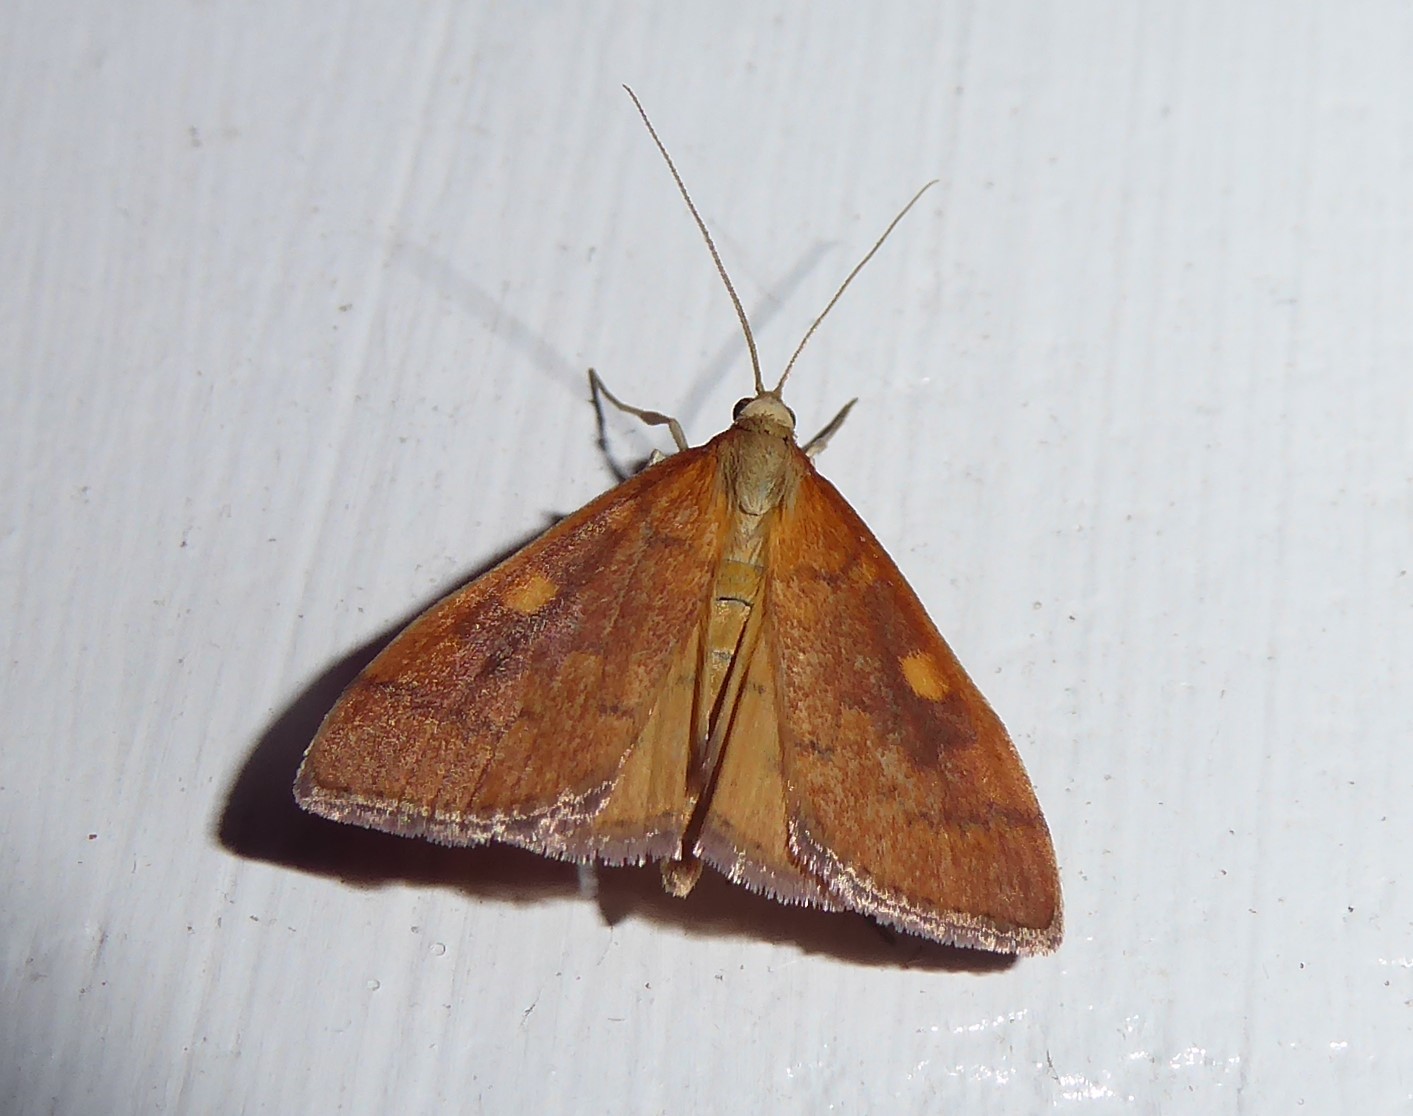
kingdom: Animalia
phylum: Arthropoda
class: Insecta
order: Lepidoptera
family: Crambidae
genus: Udea
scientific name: Udea Mnesictena flavidalis
